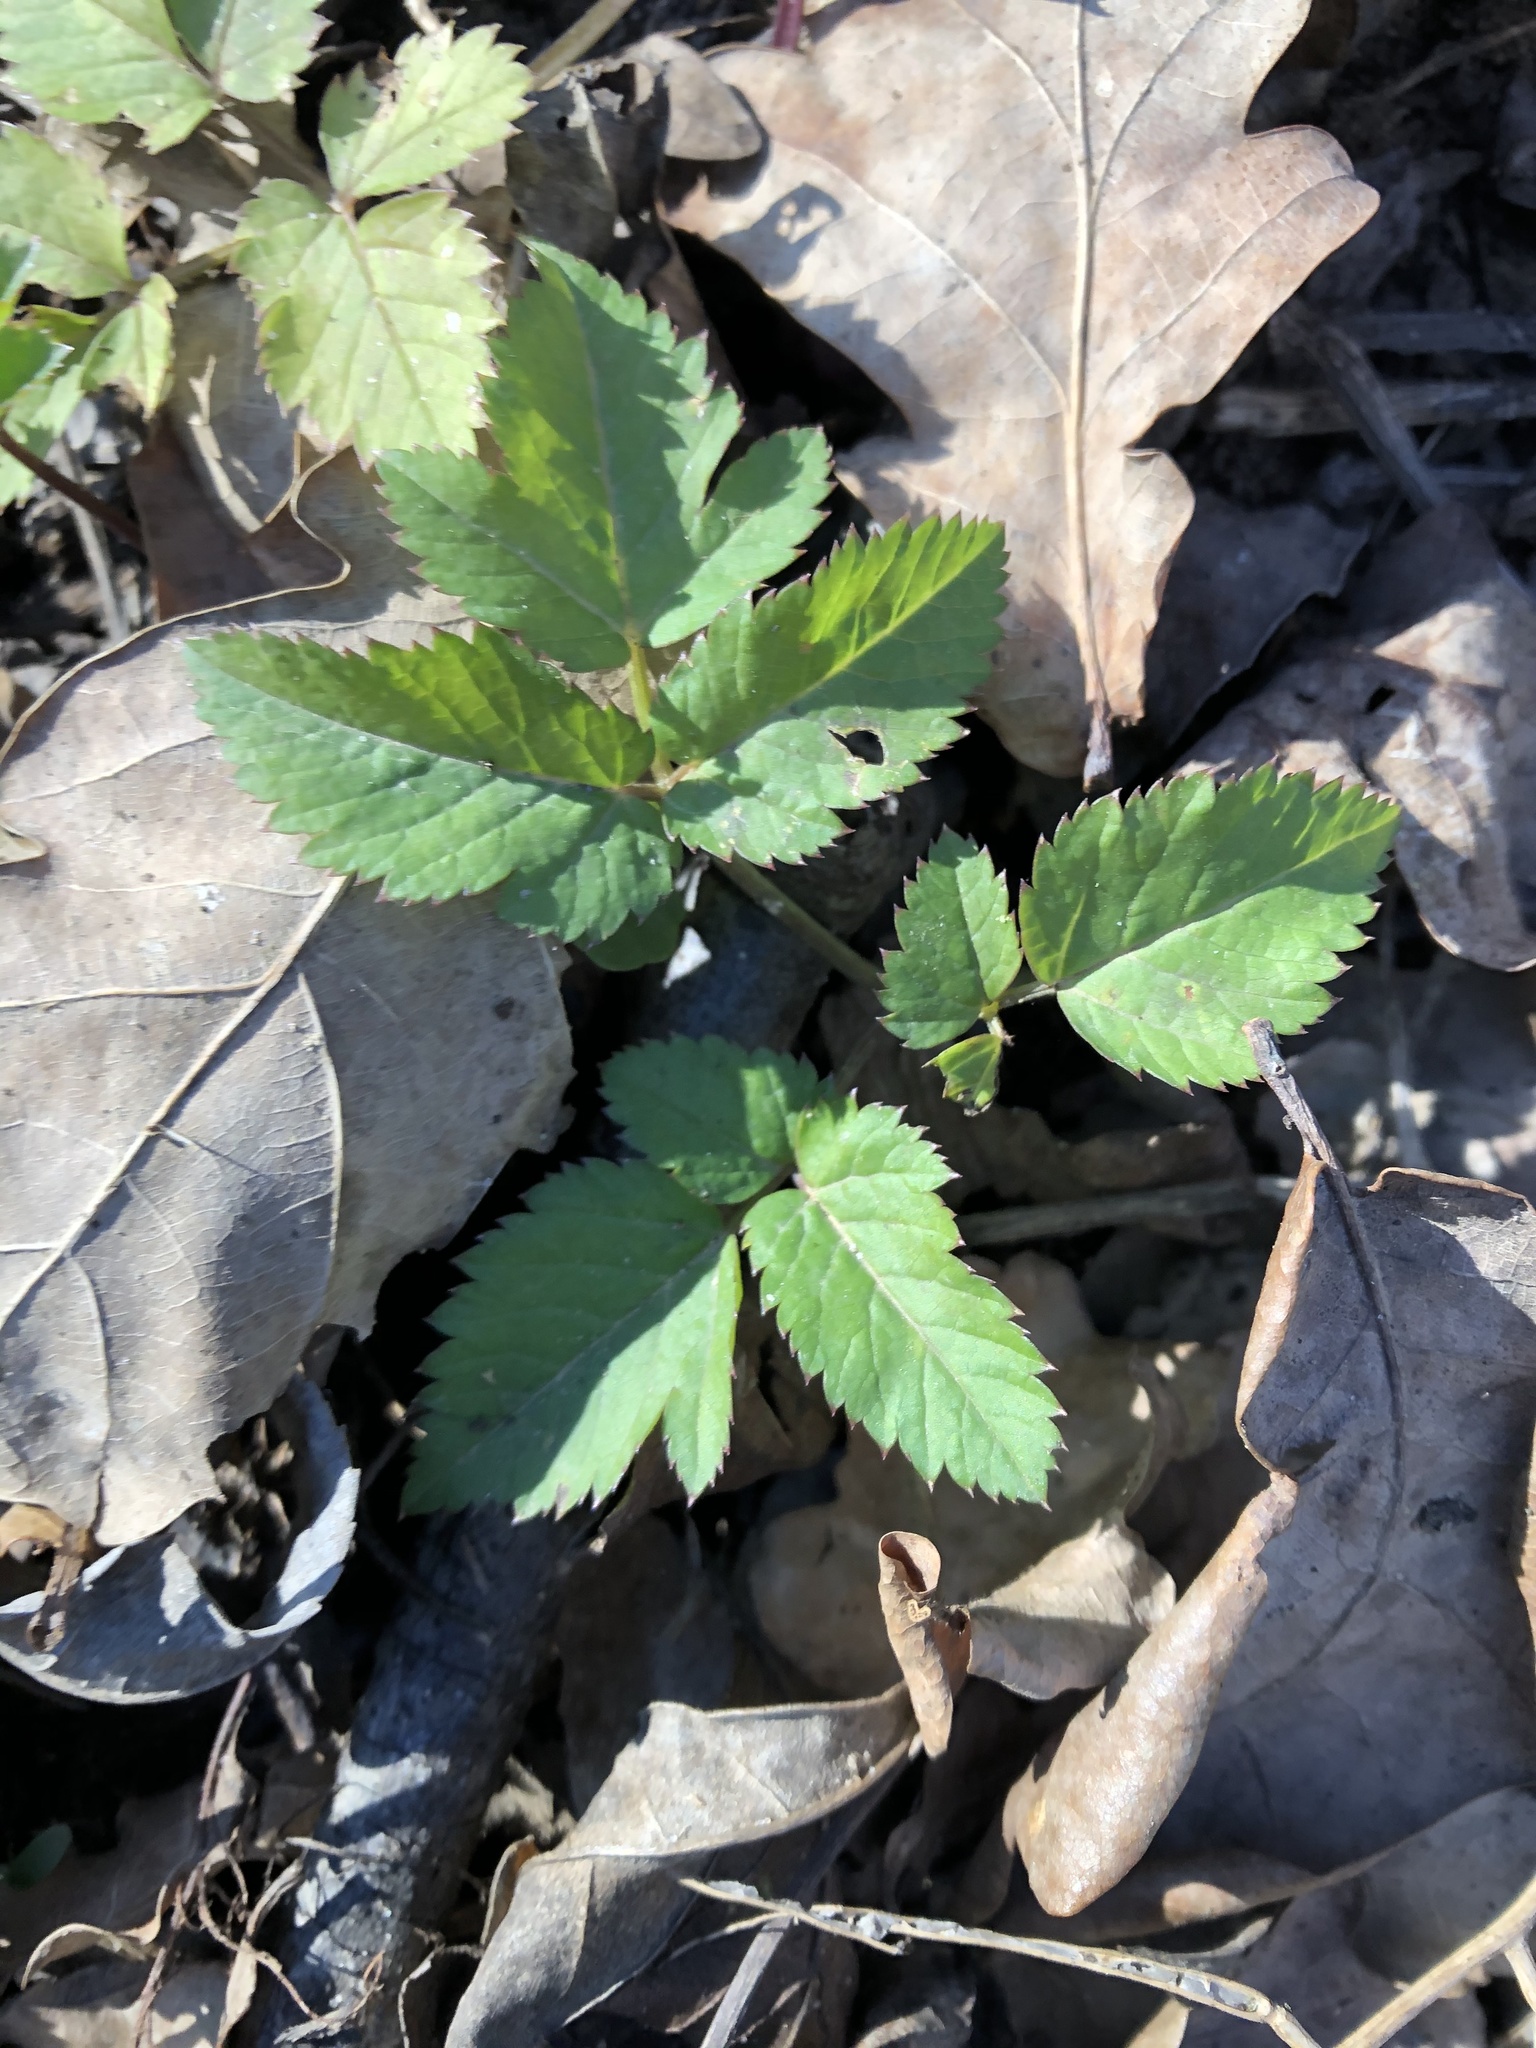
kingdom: Plantae
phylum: Tracheophyta
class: Magnoliopsida
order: Apiales
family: Apiaceae
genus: Aegopodium
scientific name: Aegopodium podagraria
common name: Ground-elder
